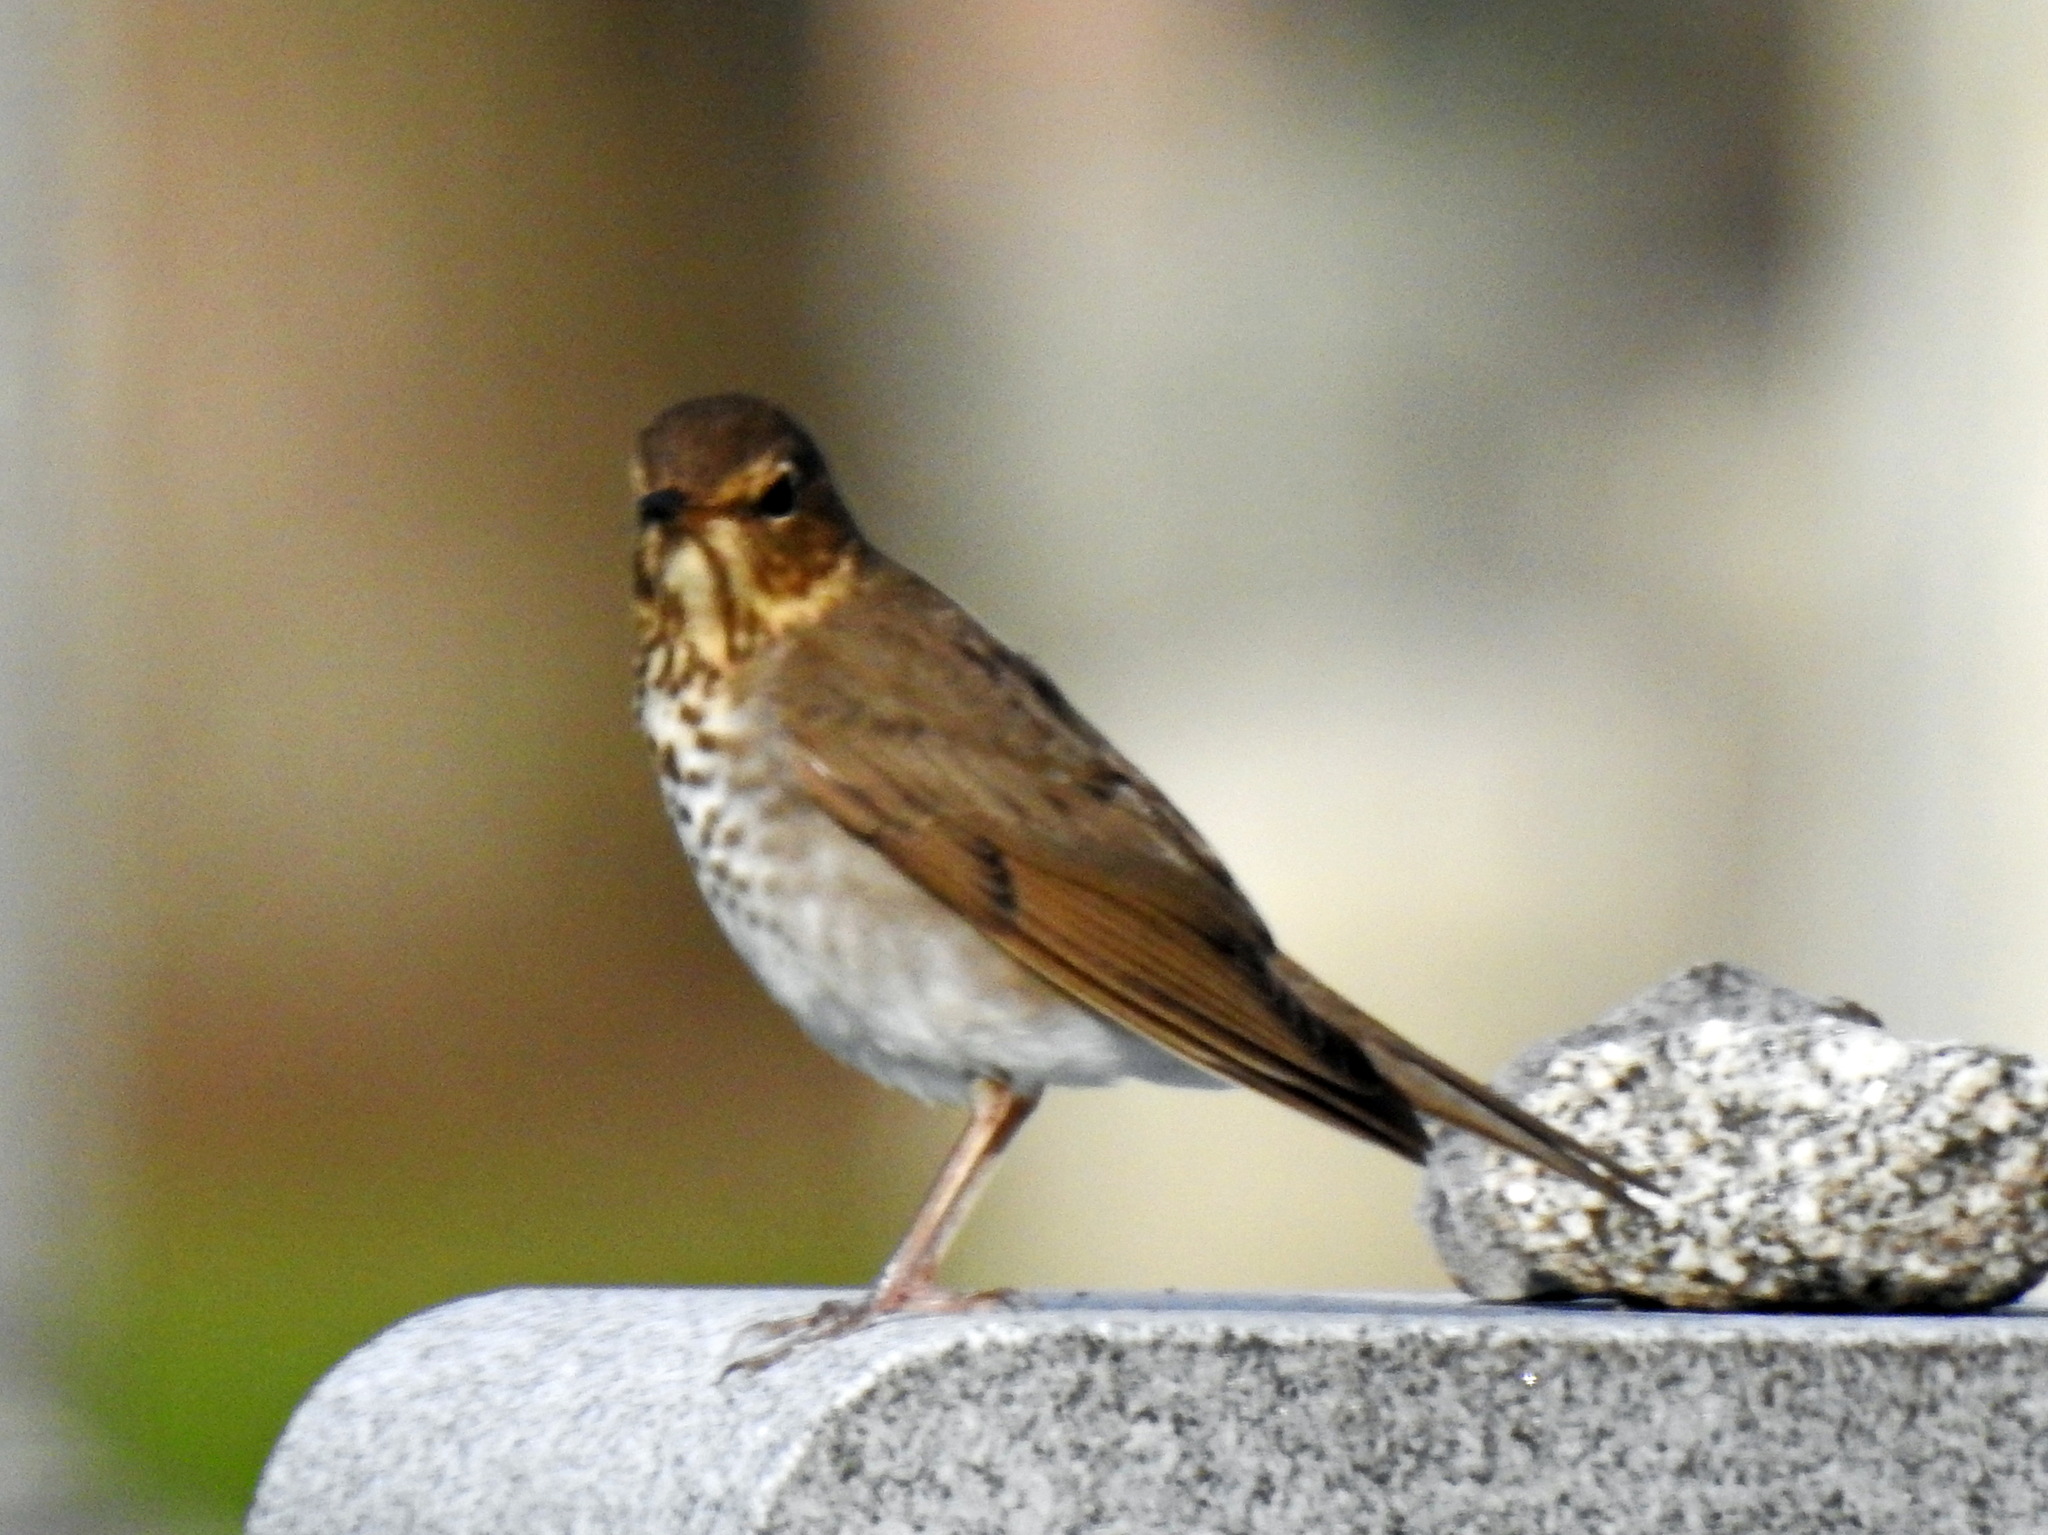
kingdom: Animalia
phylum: Chordata
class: Aves
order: Passeriformes
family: Turdidae
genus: Catharus
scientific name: Catharus ustulatus
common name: Swainson's thrush
